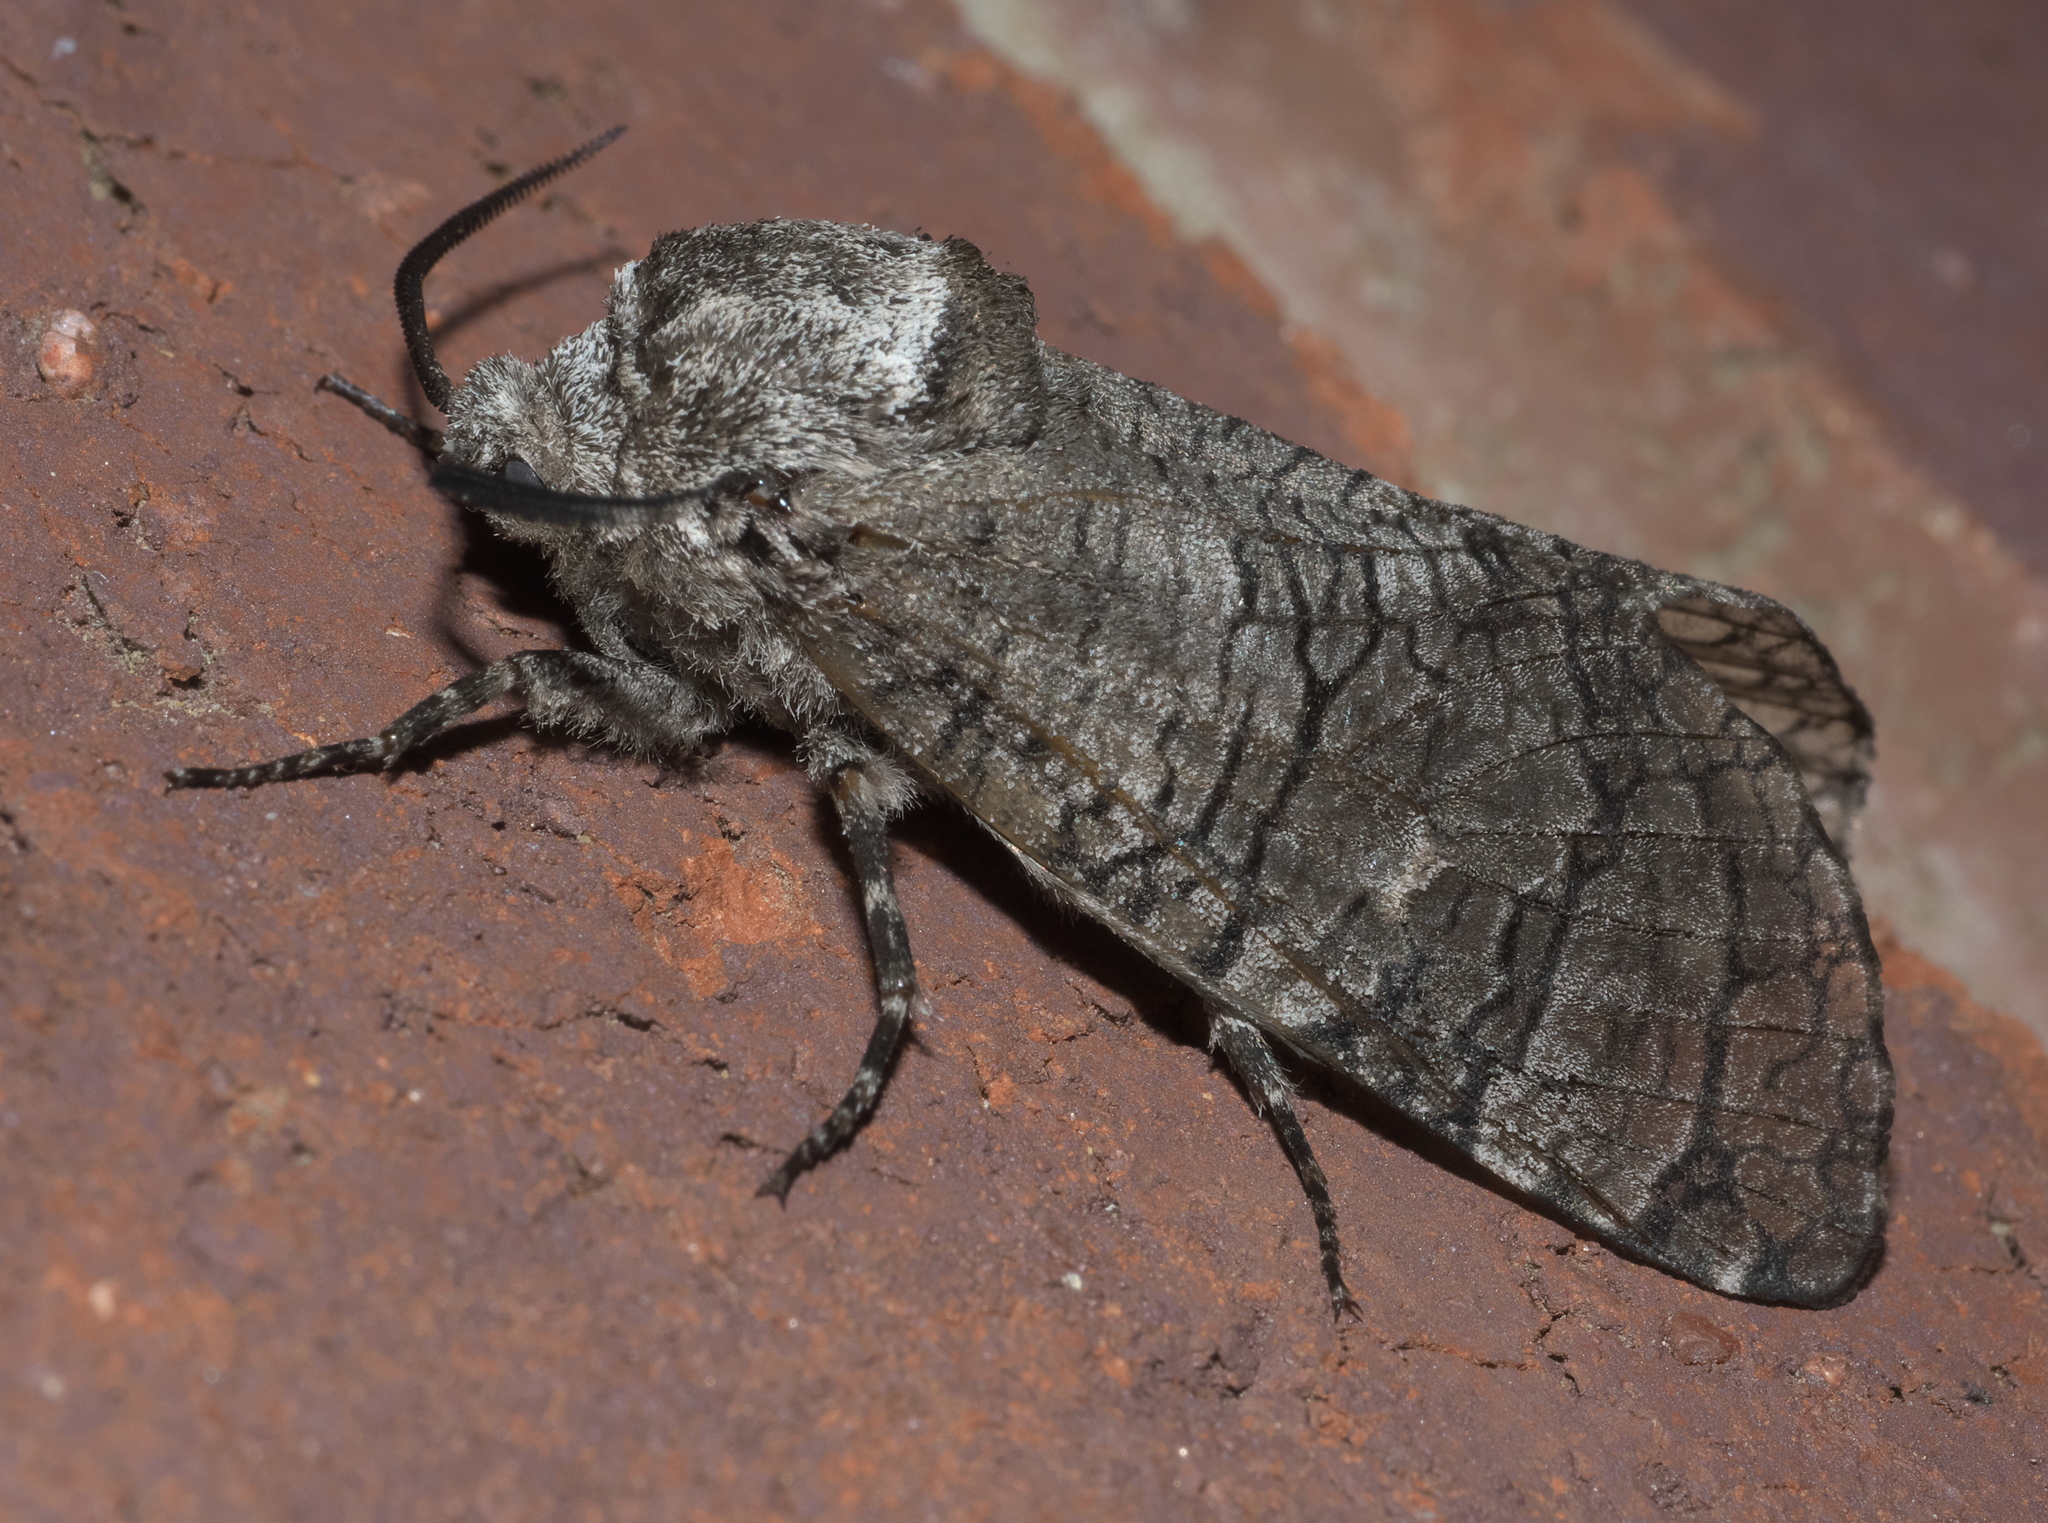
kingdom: Animalia
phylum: Arthropoda
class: Insecta
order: Lepidoptera
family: Cossidae
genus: Prionoxystus
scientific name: Prionoxystus macmurtrei
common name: Little carpenterworm
